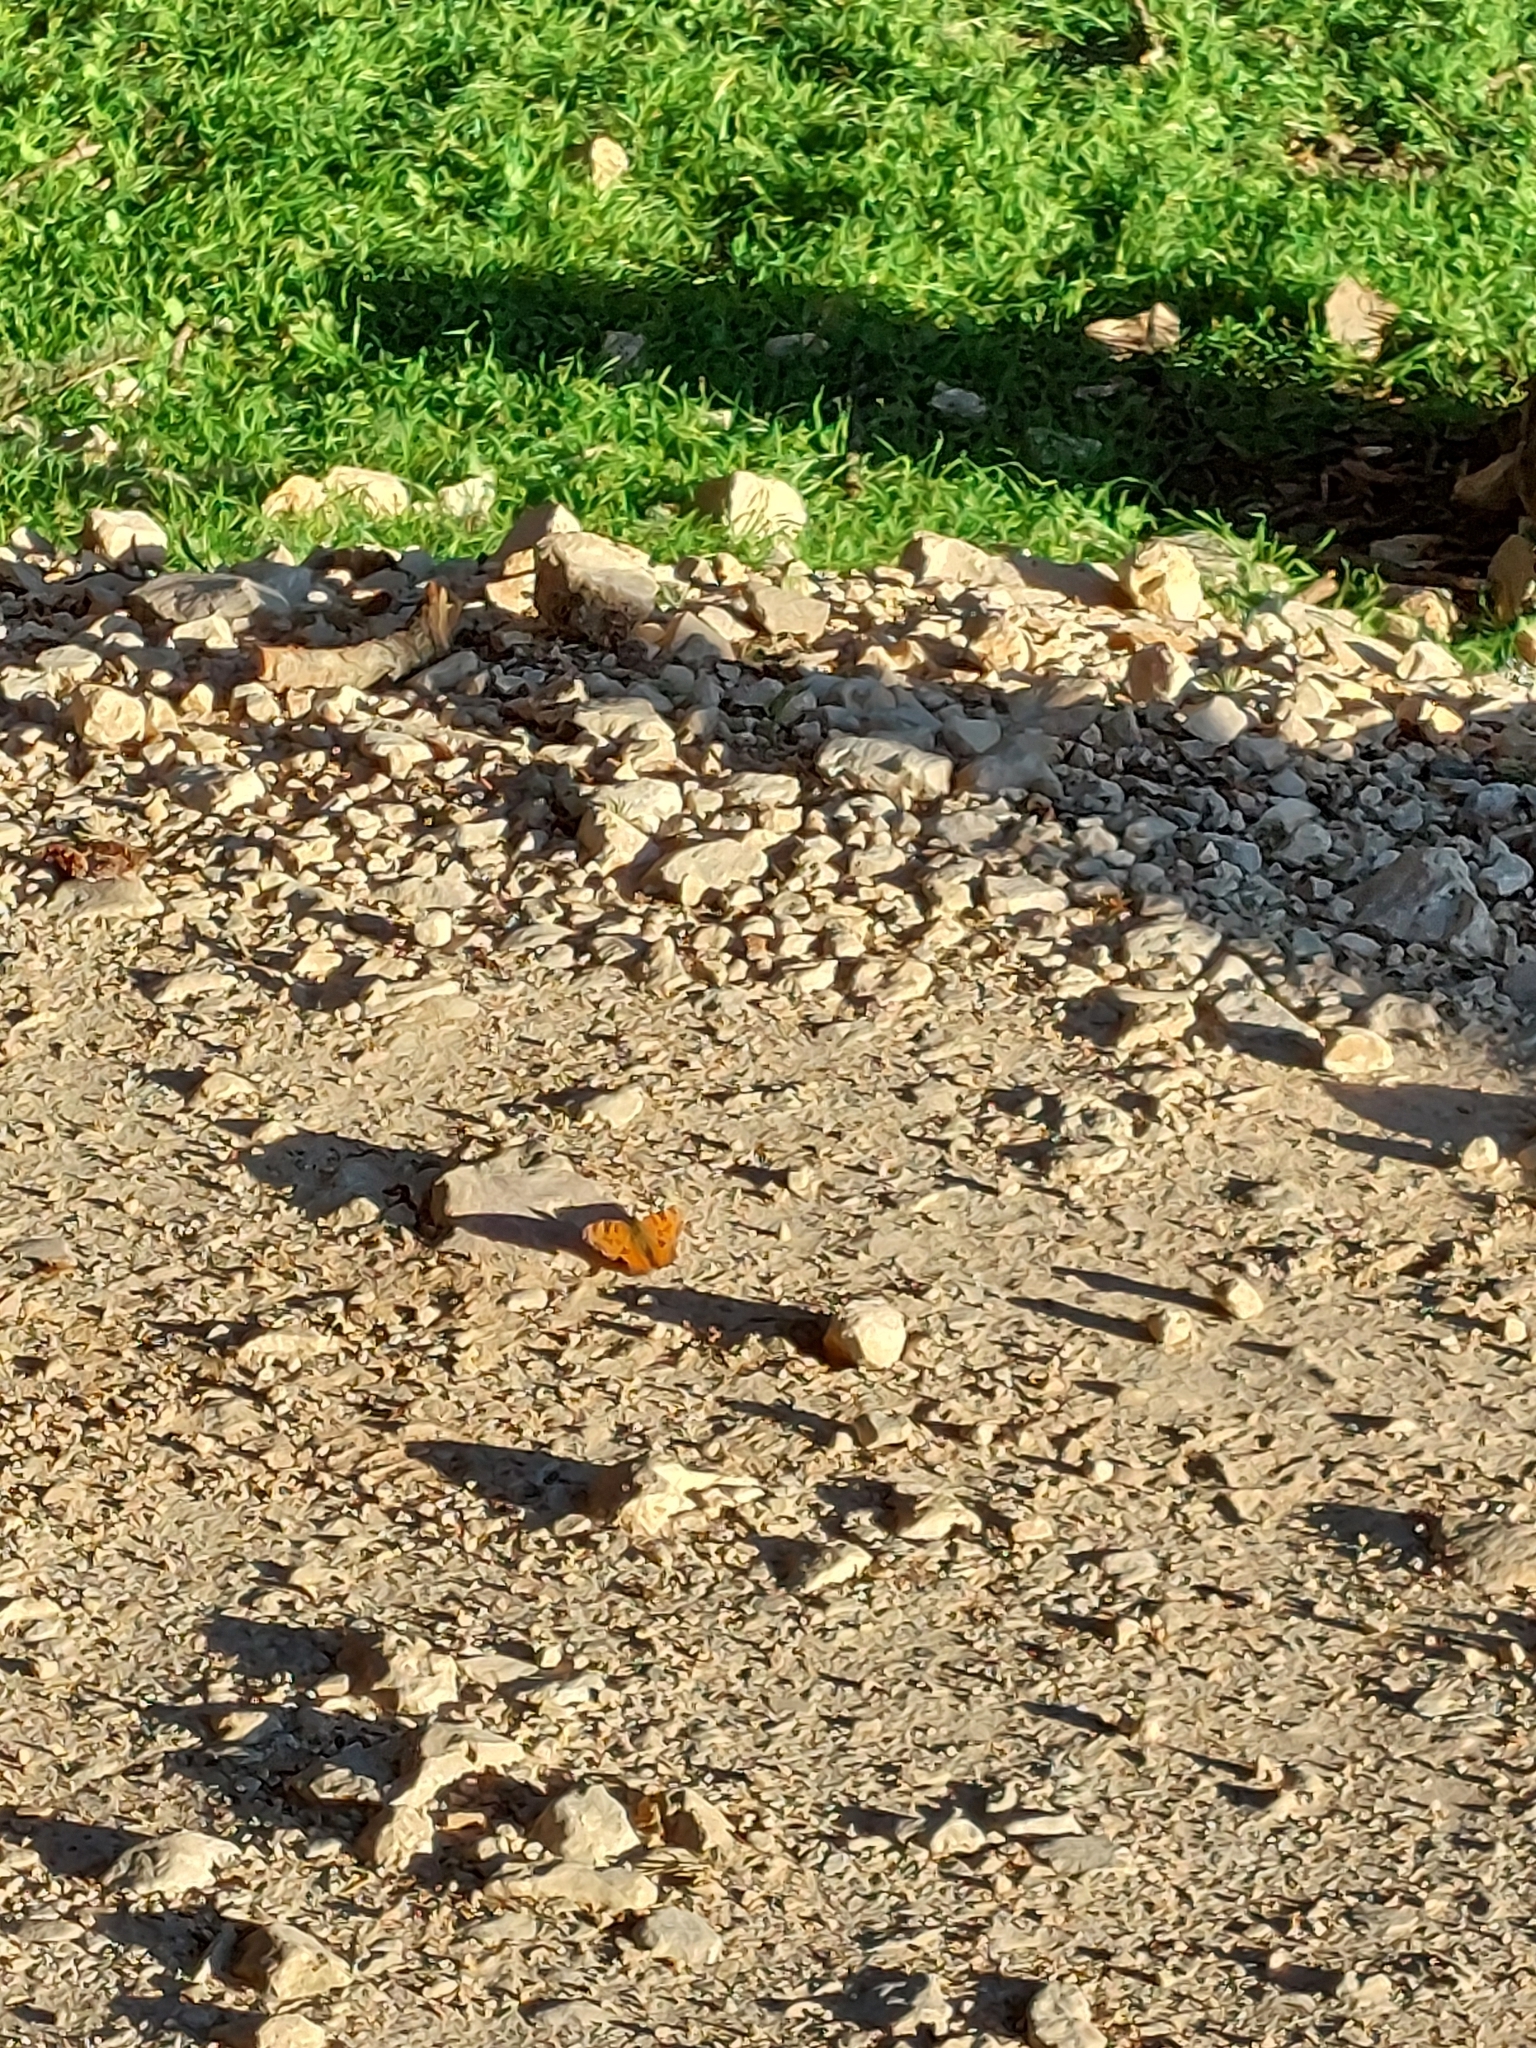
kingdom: Animalia
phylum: Arthropoda
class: Insecta
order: Lepidoptera
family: Nymphalidae
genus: Nymphalis
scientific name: Nymphalis polychloros
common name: Large tortoiseshell
